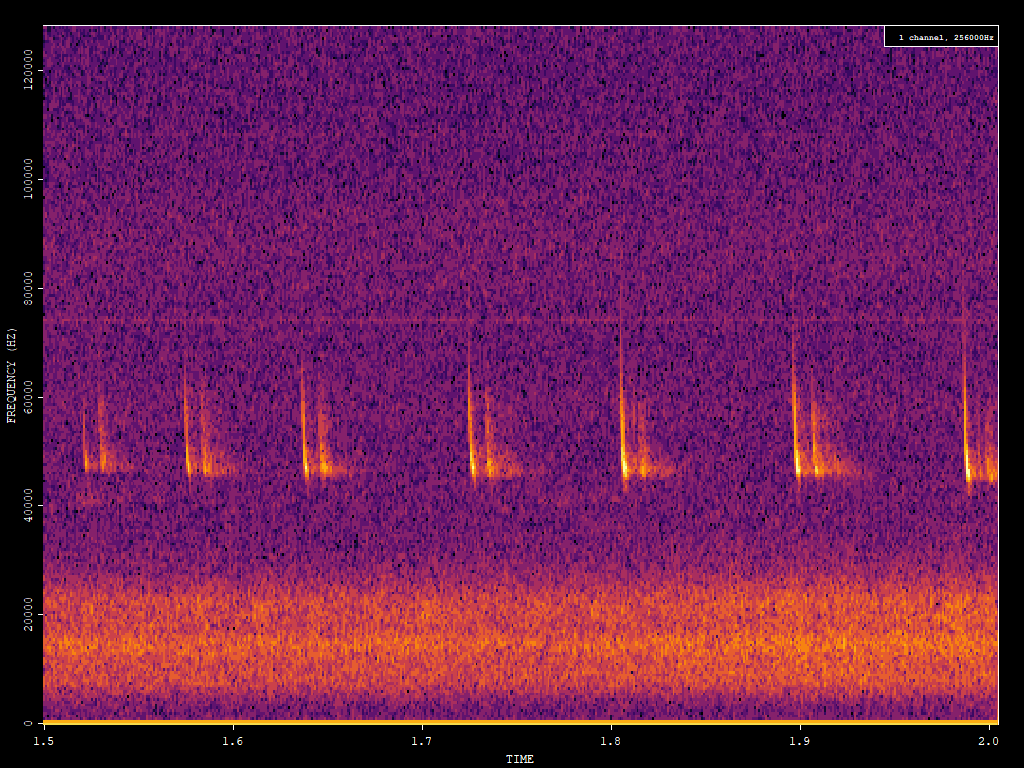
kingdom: Animalia
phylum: Chordata
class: Mammalia
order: Chiroptera
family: Vespertilionidae
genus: Pipistrellus
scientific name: Pipistrellus pipistrellus
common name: Common pipistrelle
